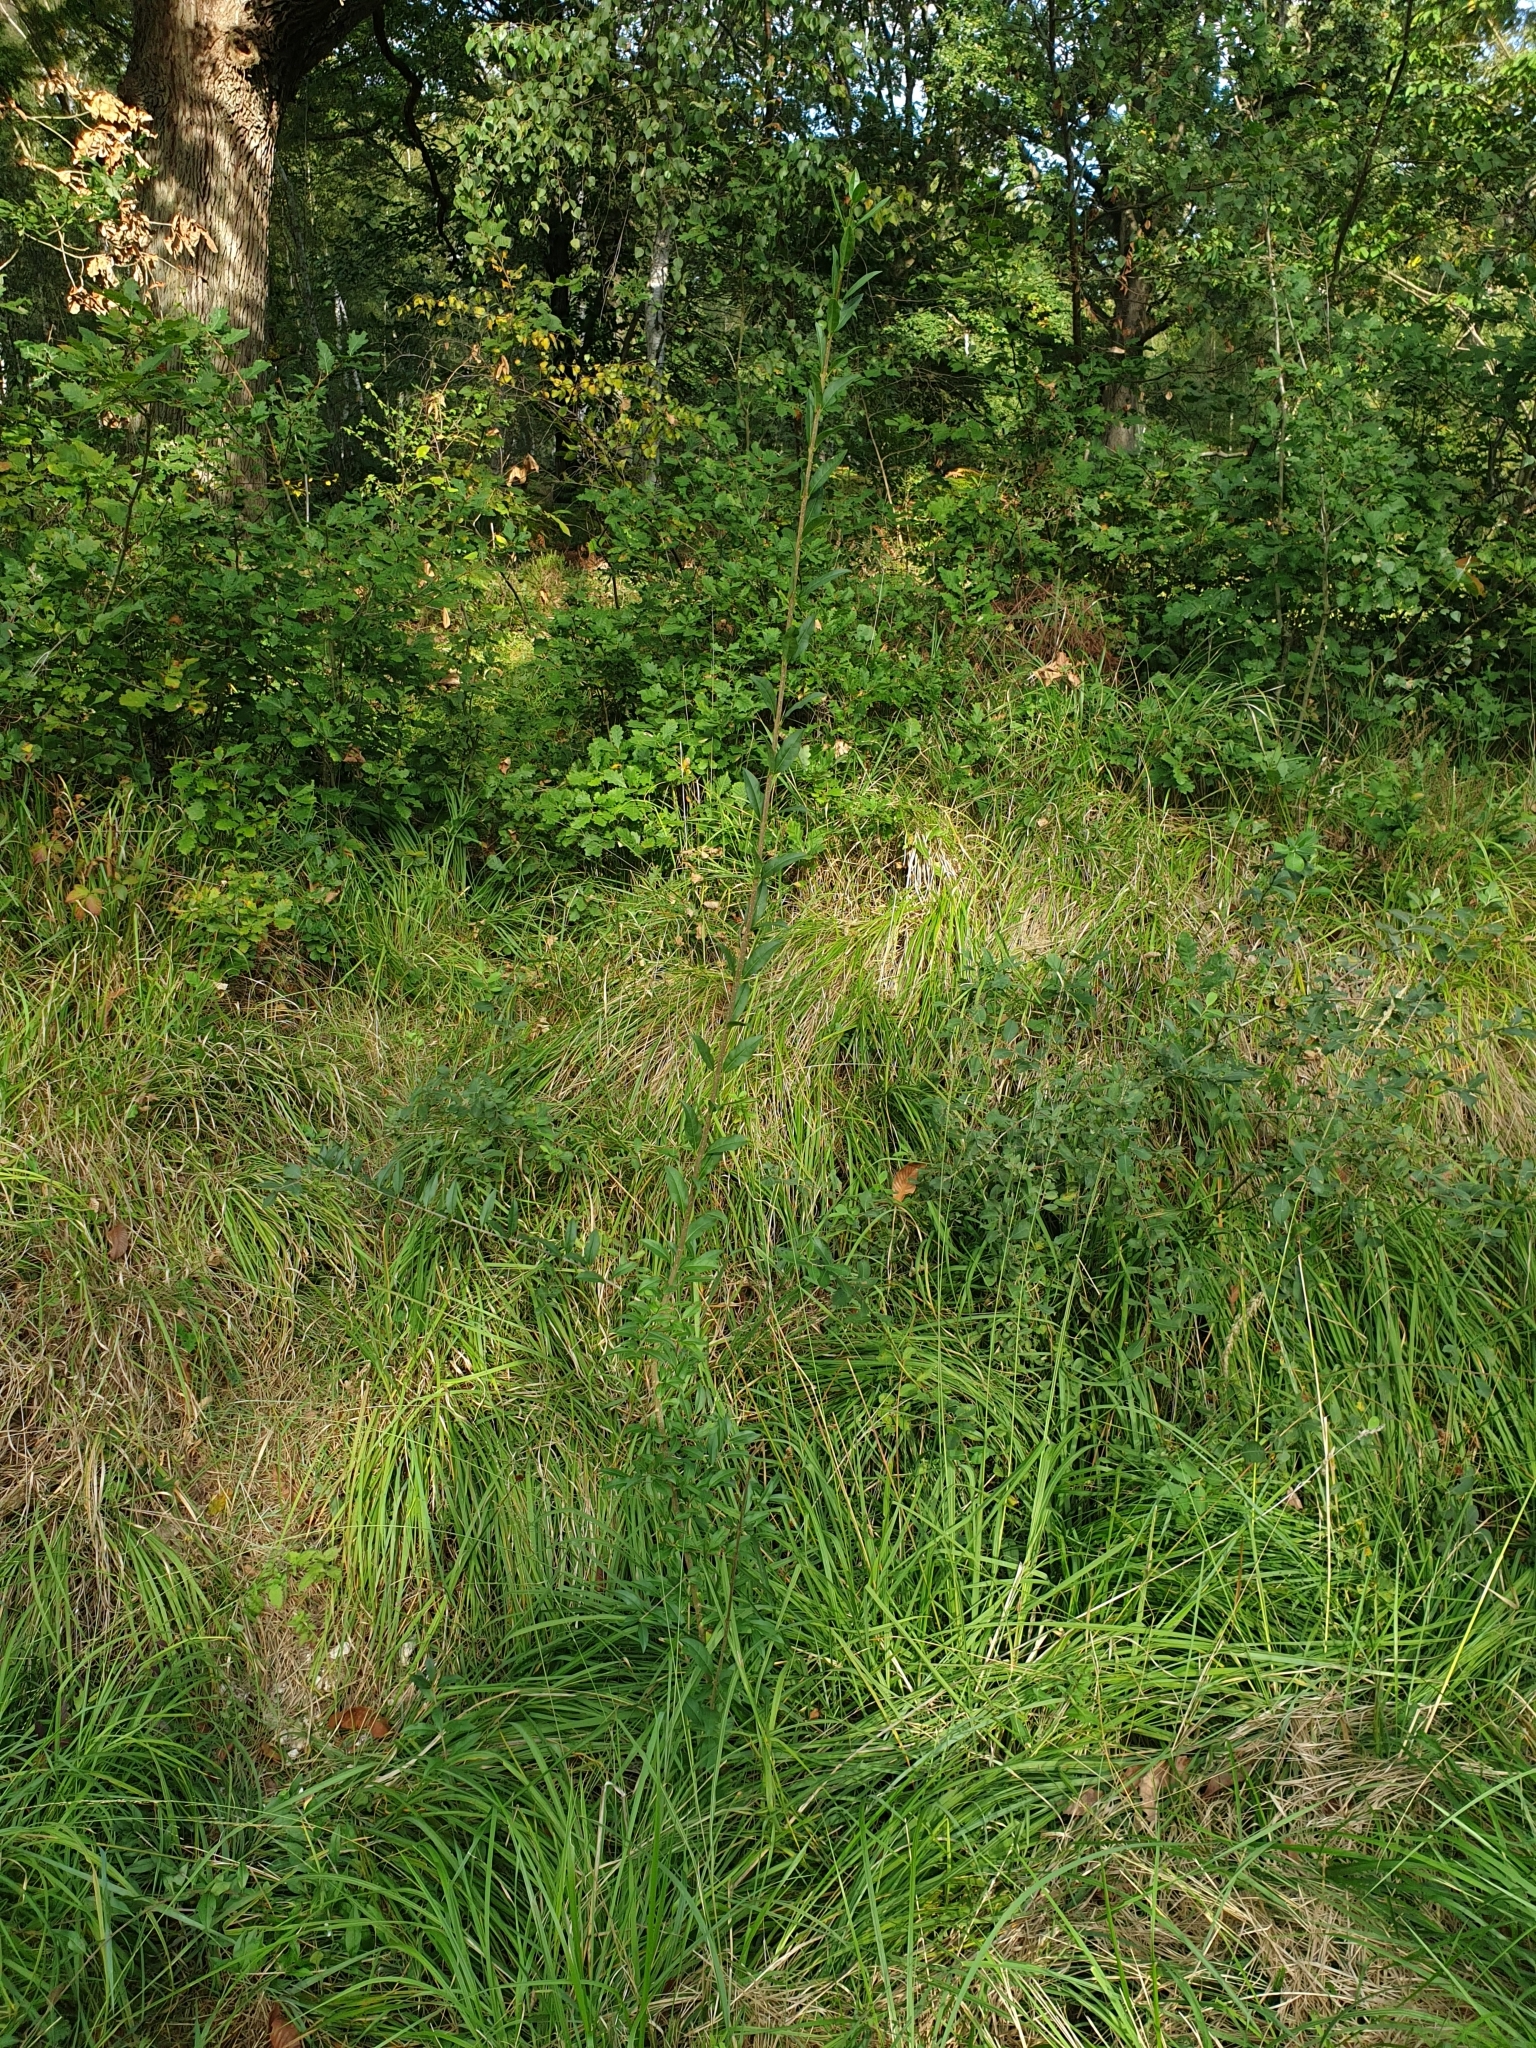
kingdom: Plantae
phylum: Tracheophyta
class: Magnoliopsida
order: Lamiales
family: Oleaceae
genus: Ligustrum
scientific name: Ligustrum vulgare
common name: Wild privet
